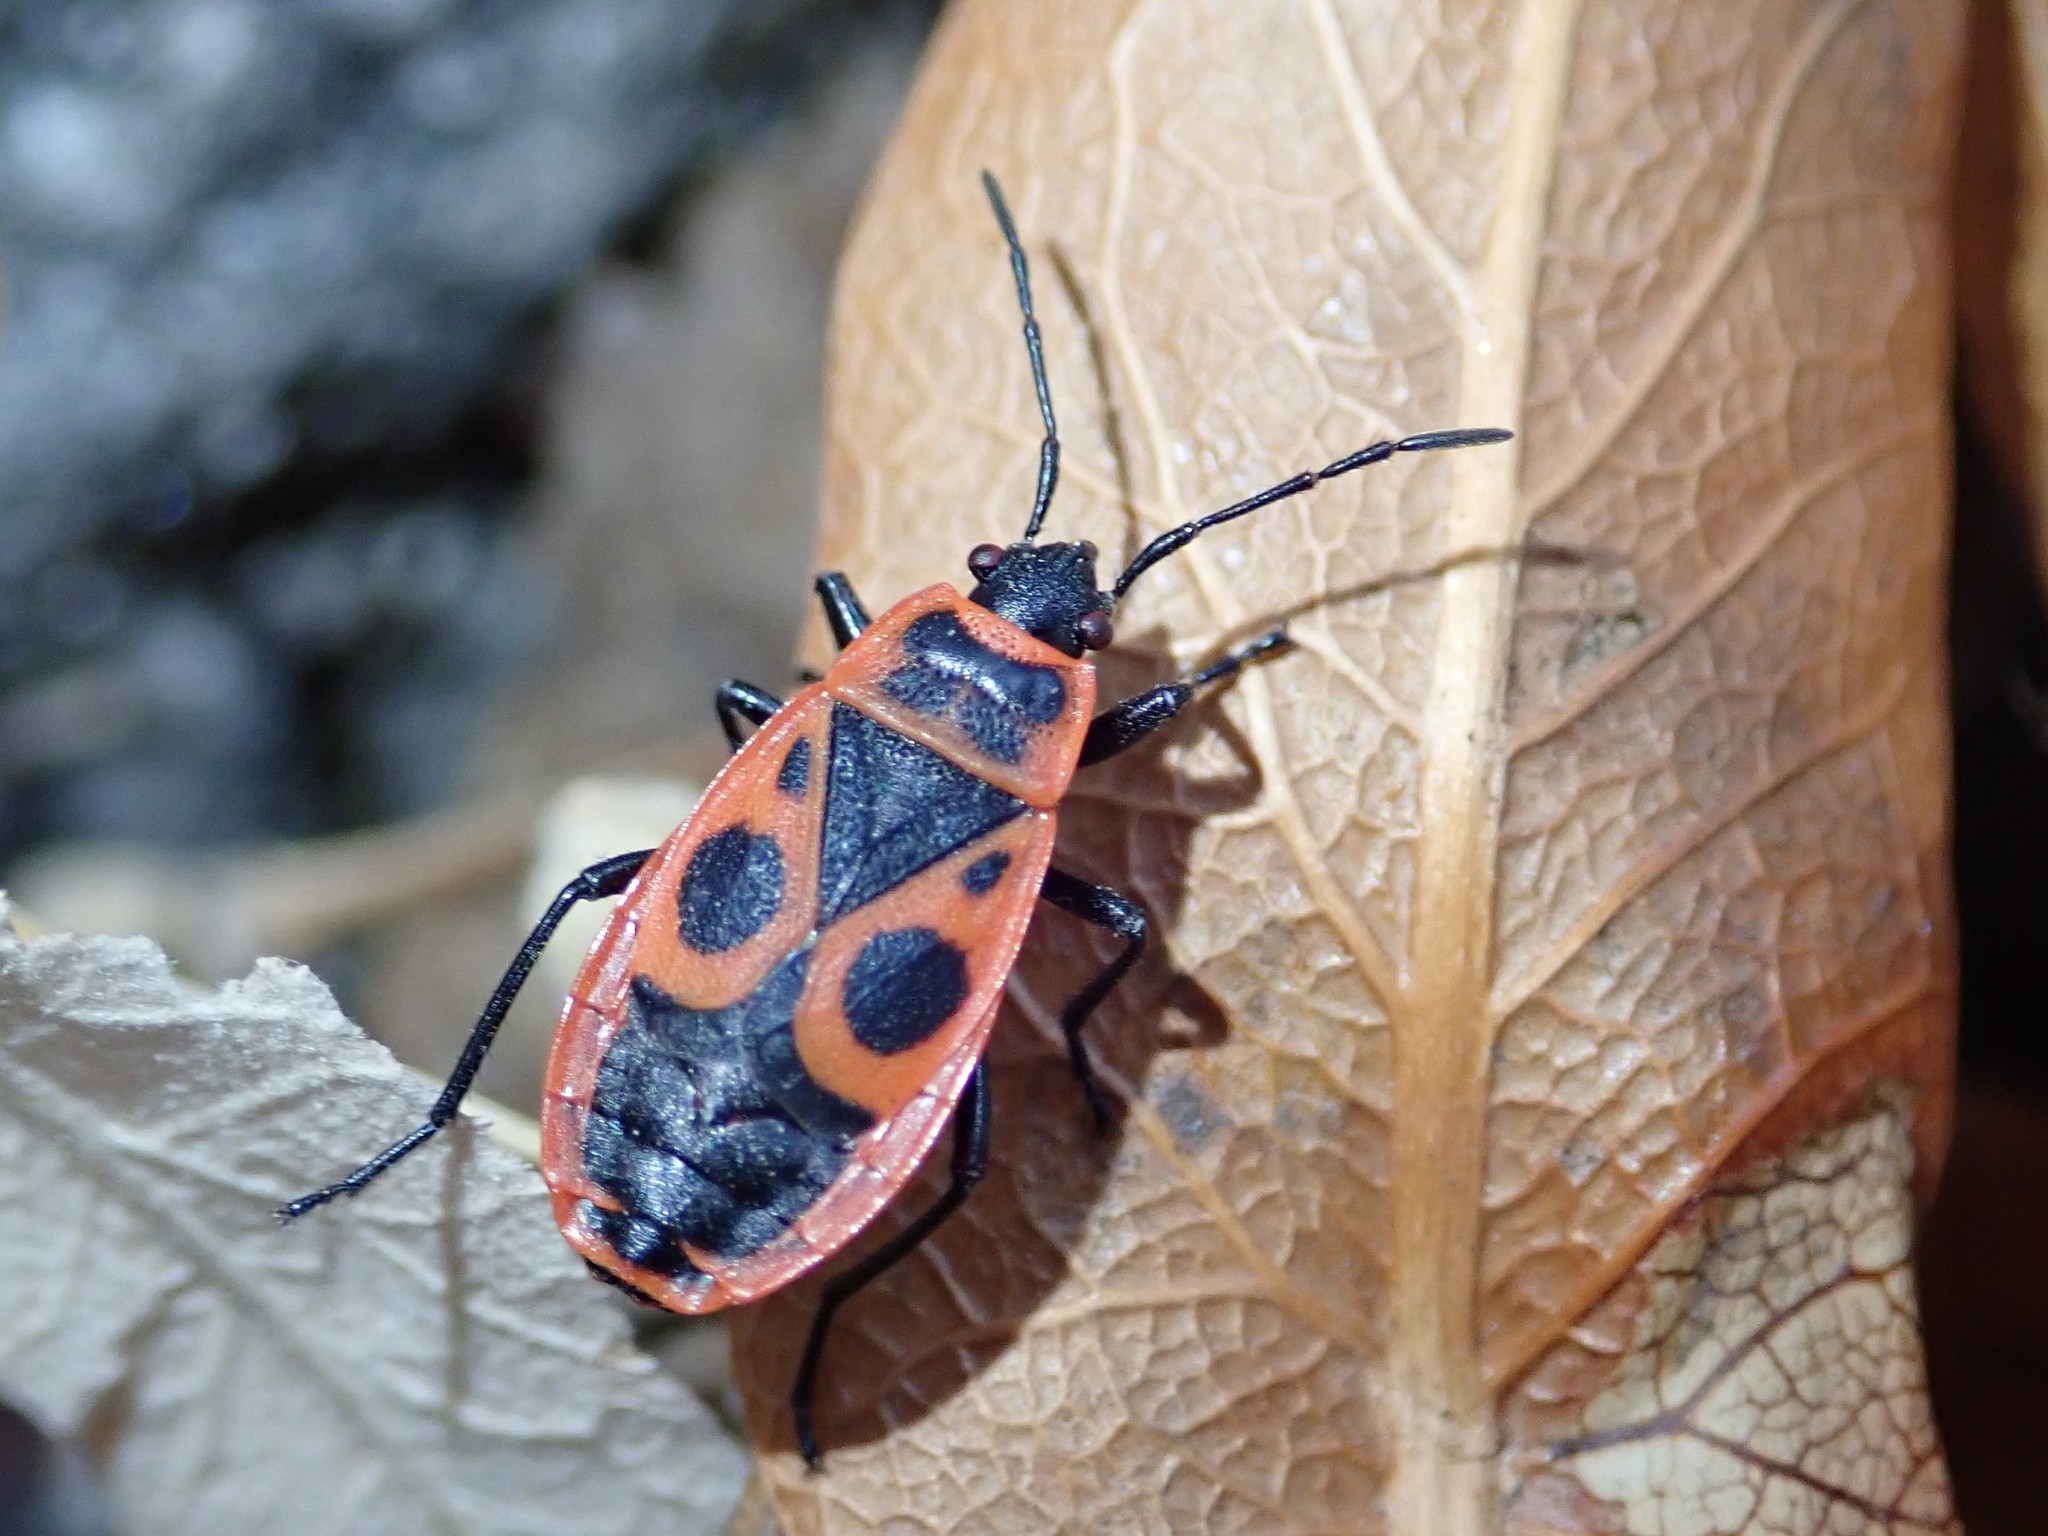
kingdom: Animalia
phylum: Arthropoda
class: Insecta
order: Hemiptera
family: Pyrrhocoridae
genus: Pyrrhocoris
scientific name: Pyrrhocoris apterus
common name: Firebug
